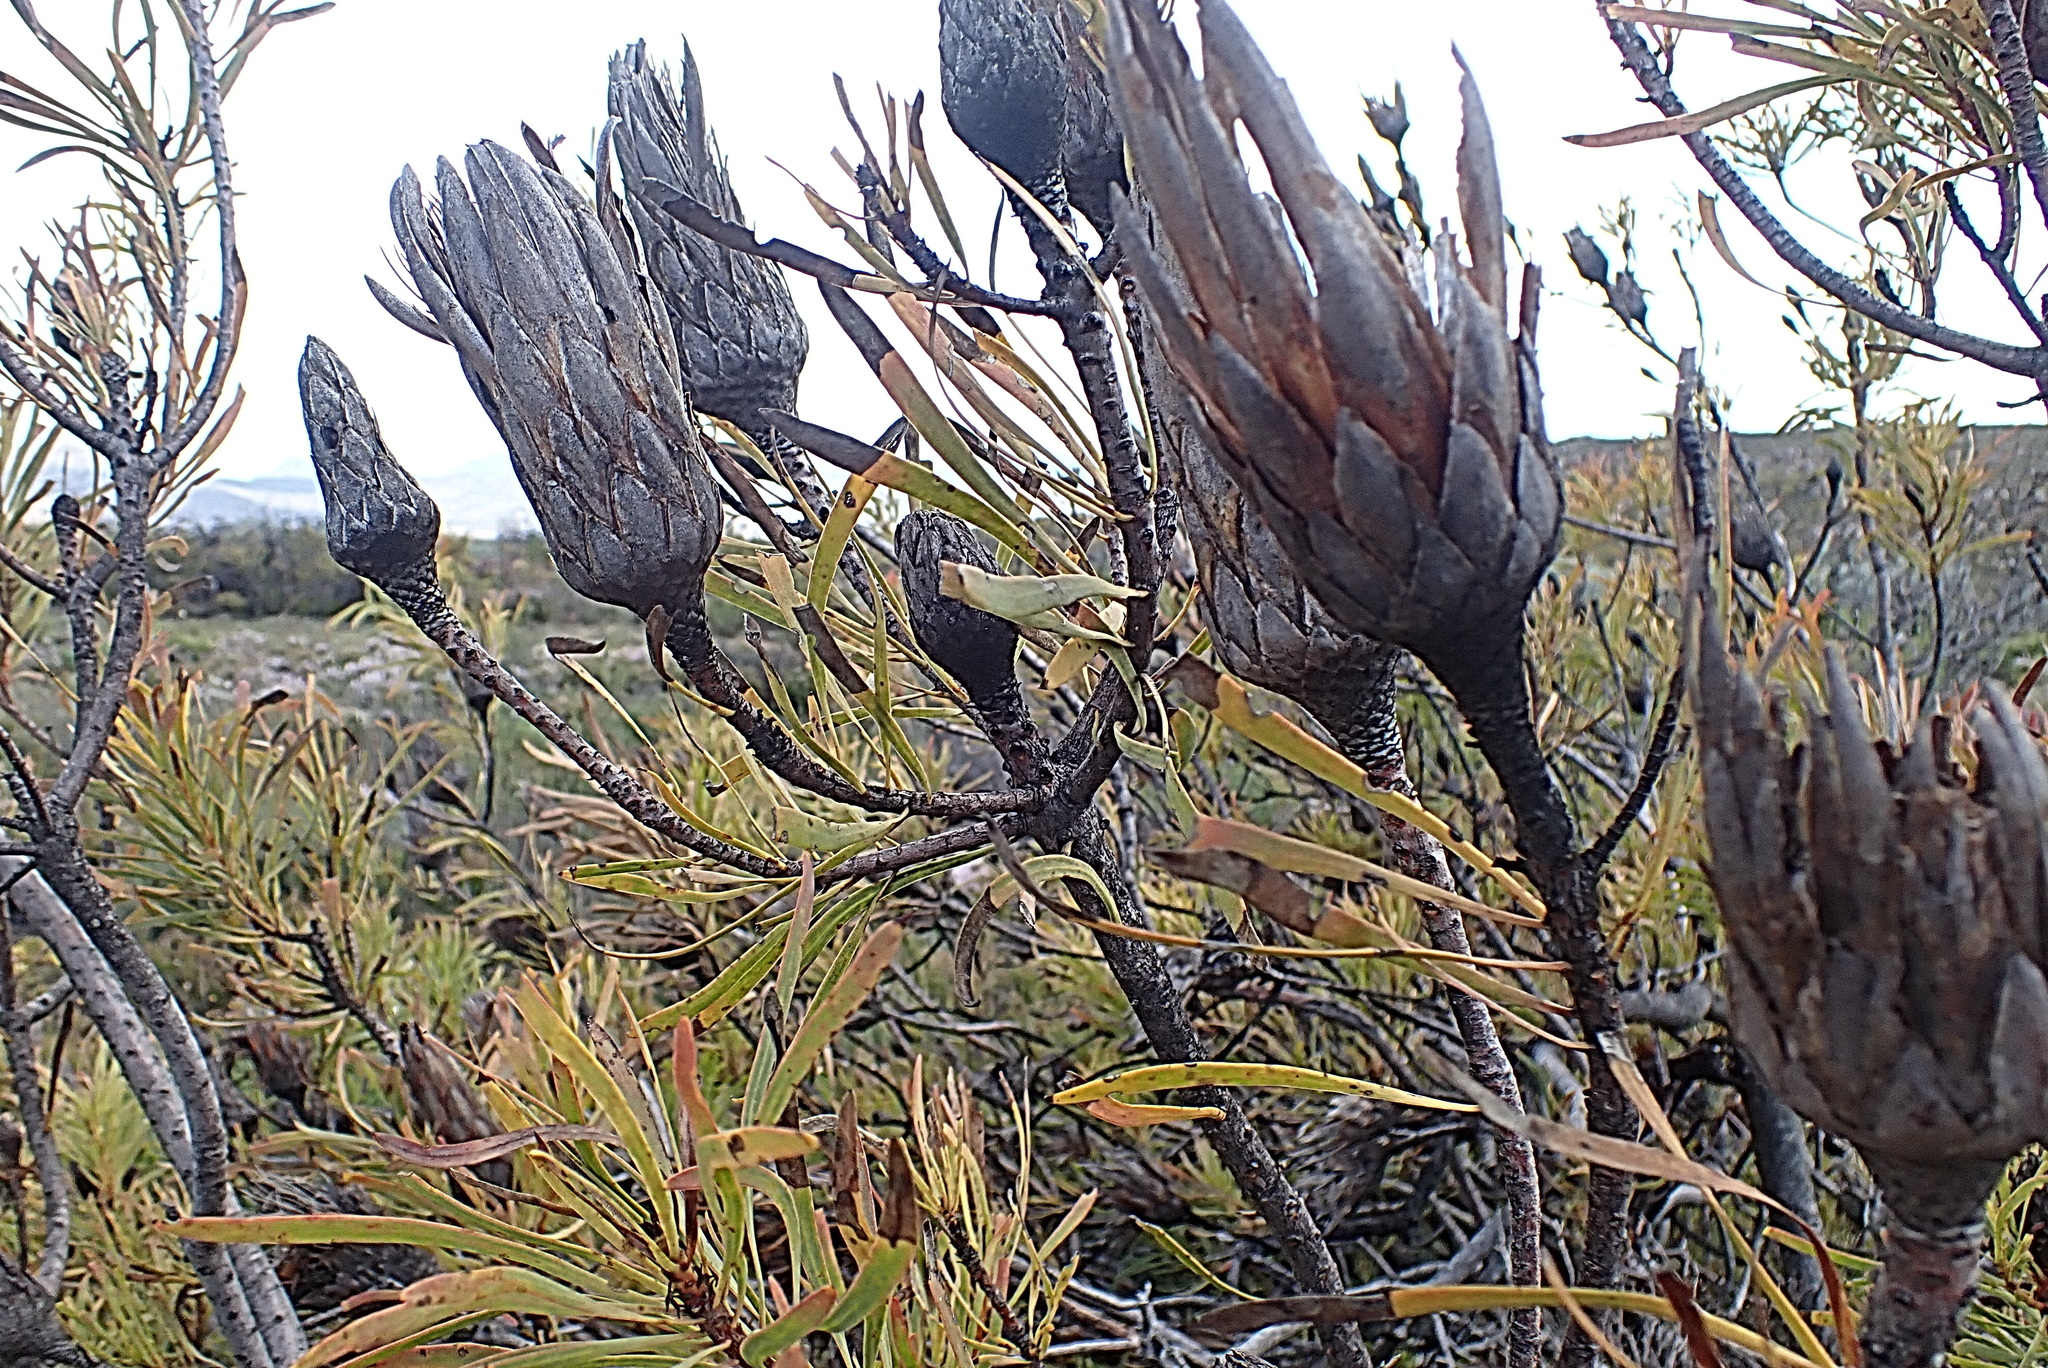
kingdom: Plantae
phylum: Tracheophyta
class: Magnoliopsida
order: Proteales
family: Proteaceae
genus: Protea
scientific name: Protea repens
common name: Sugarbush
